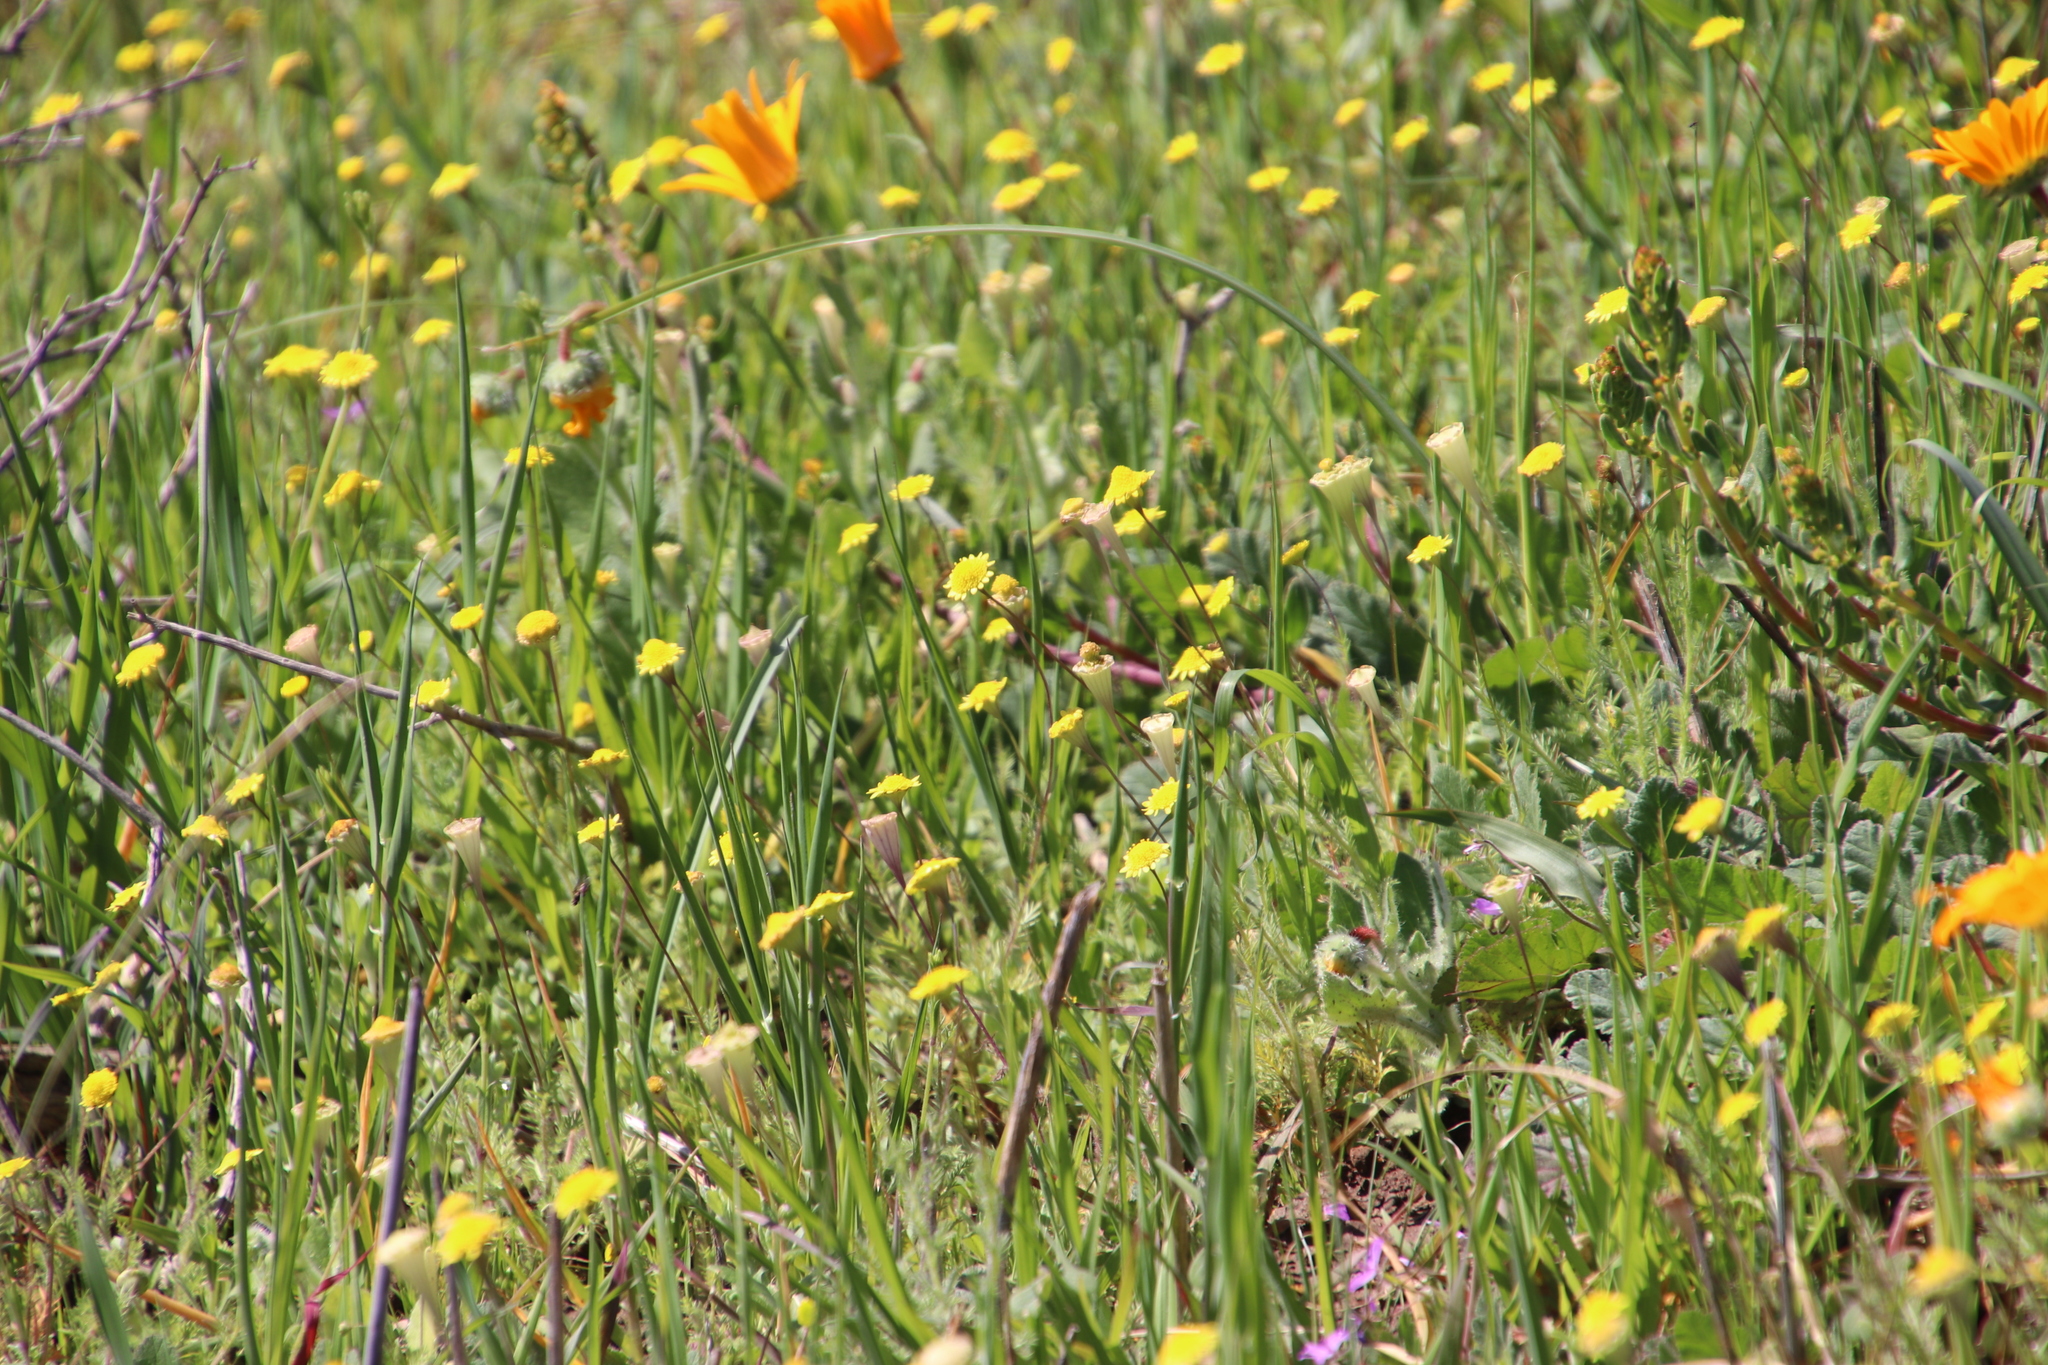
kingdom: Plantae
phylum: Tracheophyta
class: Magnoliopsida
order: Asterales
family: Asteraceae
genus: Cotula
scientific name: Cotula pruinosa
